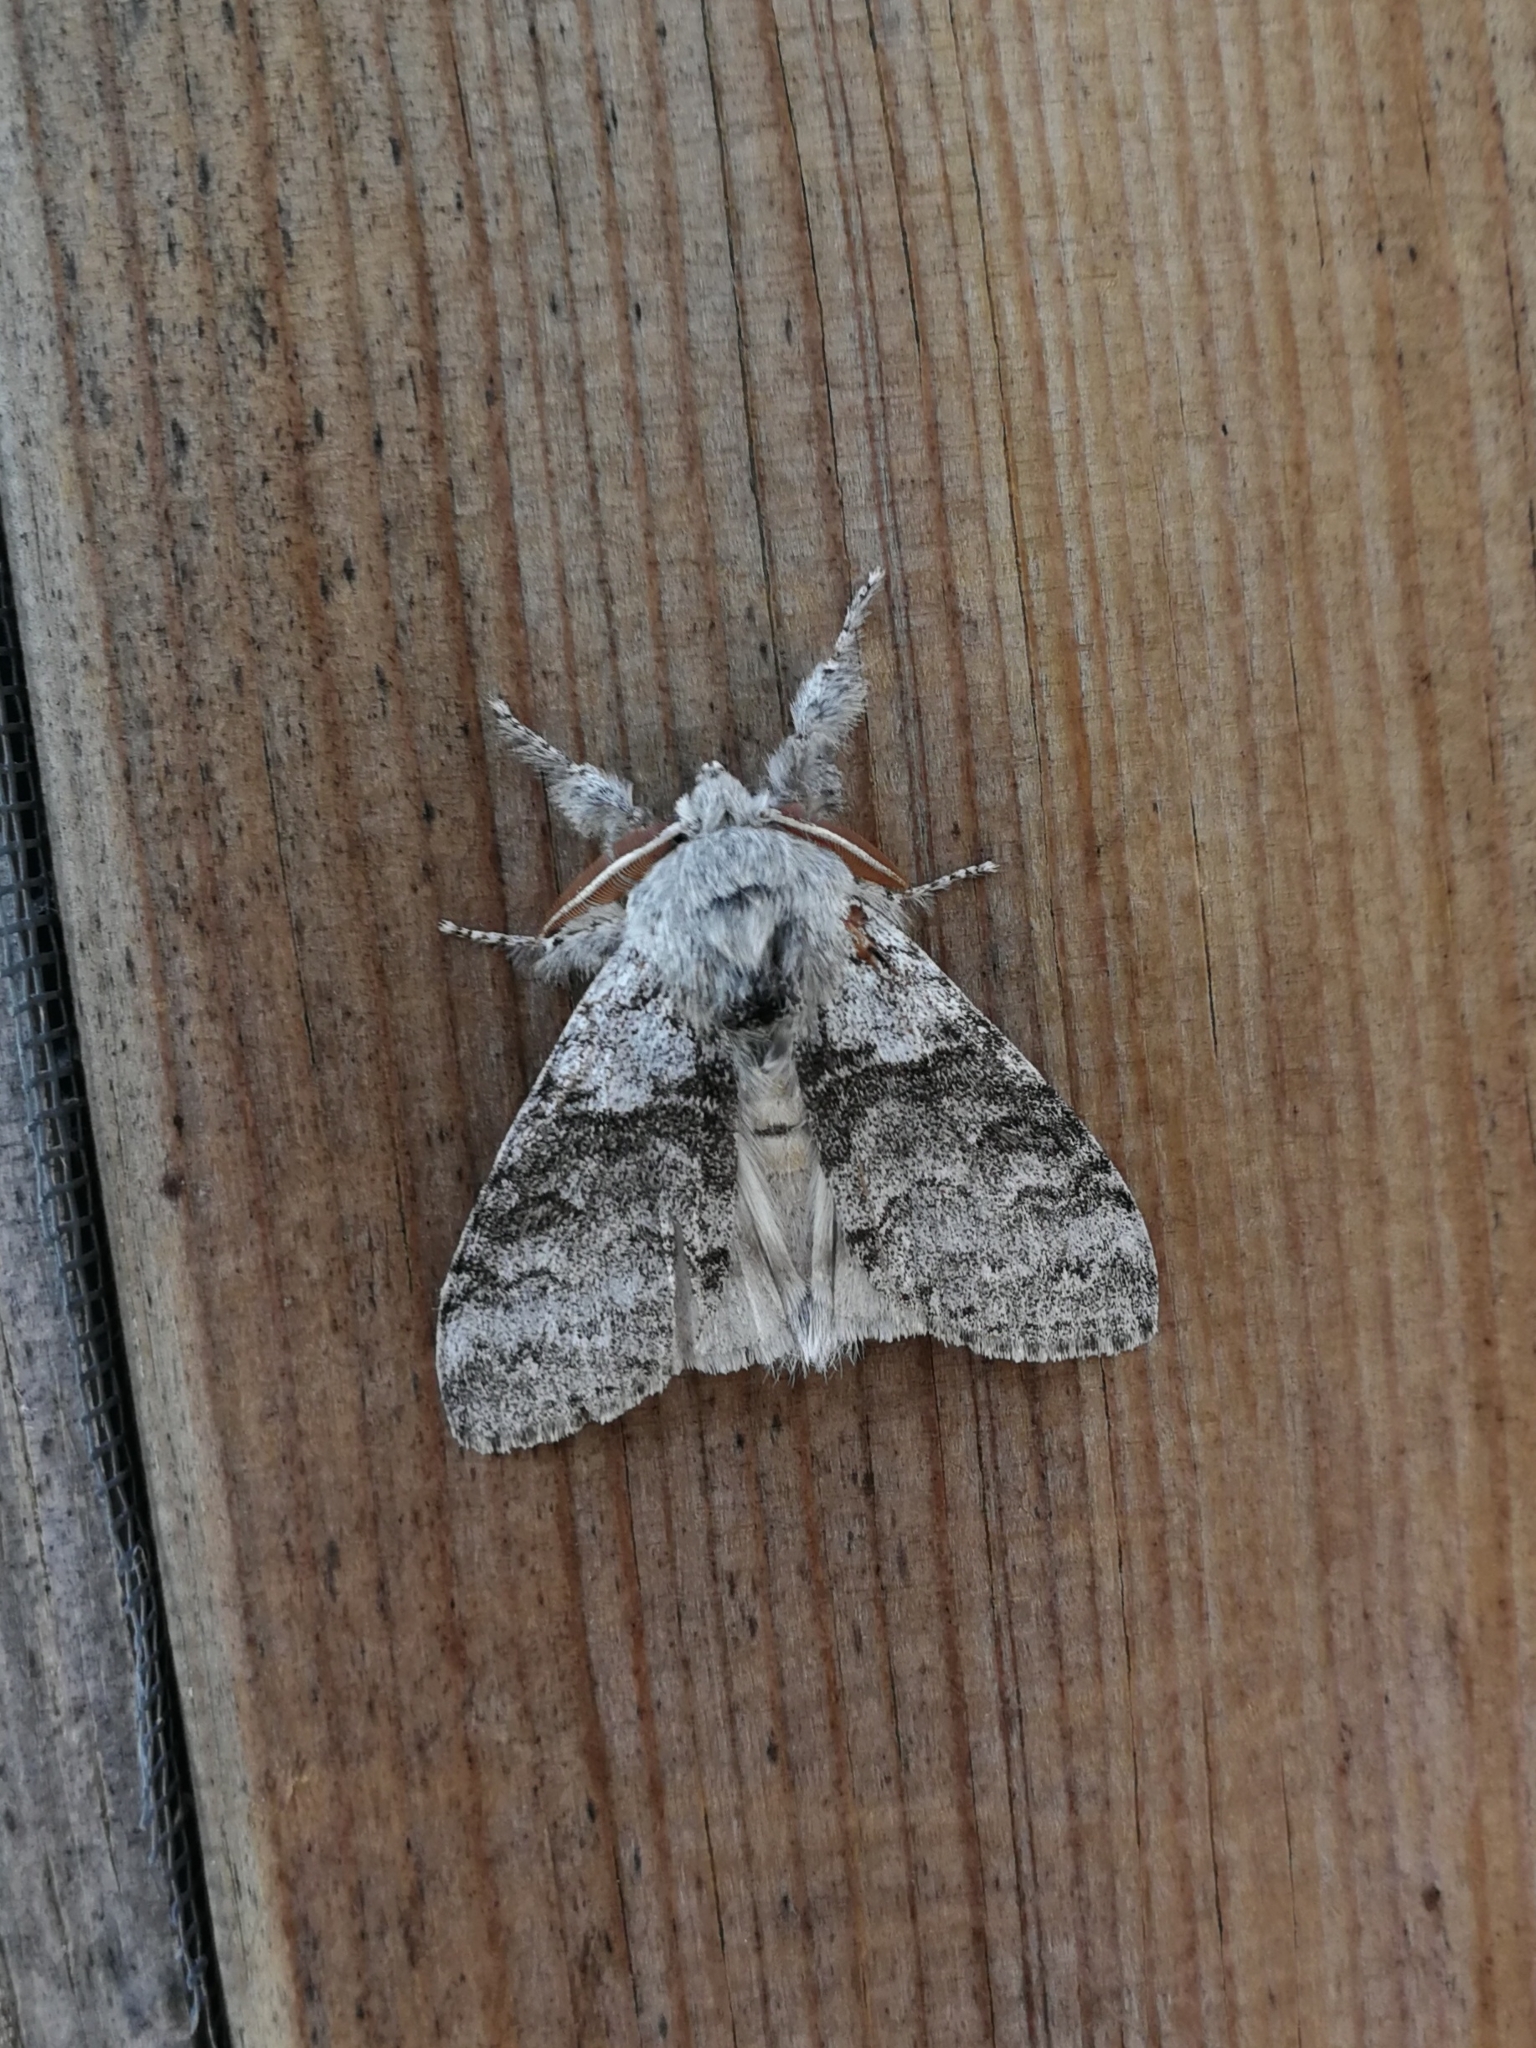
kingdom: Animalia
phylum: Arthropoda
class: Insecta
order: Lepidoptera
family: Erebidae
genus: Calliteara
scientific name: Calliteara pudibunda
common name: Pale tussock
